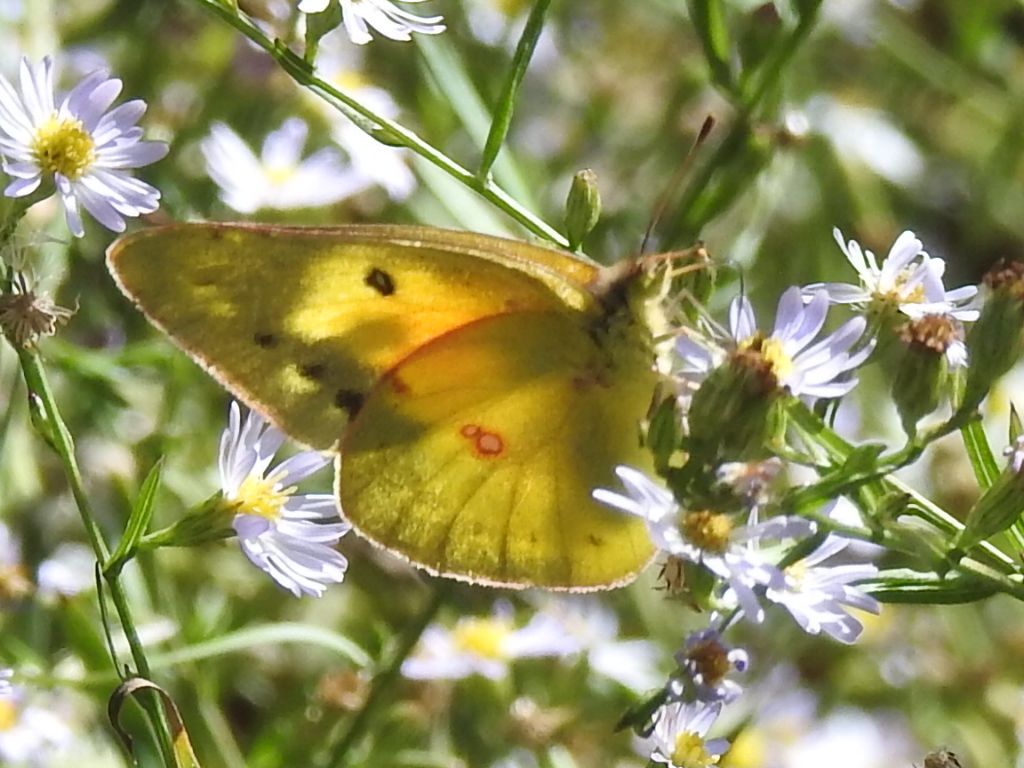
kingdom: Animalia
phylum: Arthropoda
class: Insecta
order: Lepidoptera
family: Pieridae
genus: Colias
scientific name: Colias eurytheme
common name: Alfalfa butterfly
